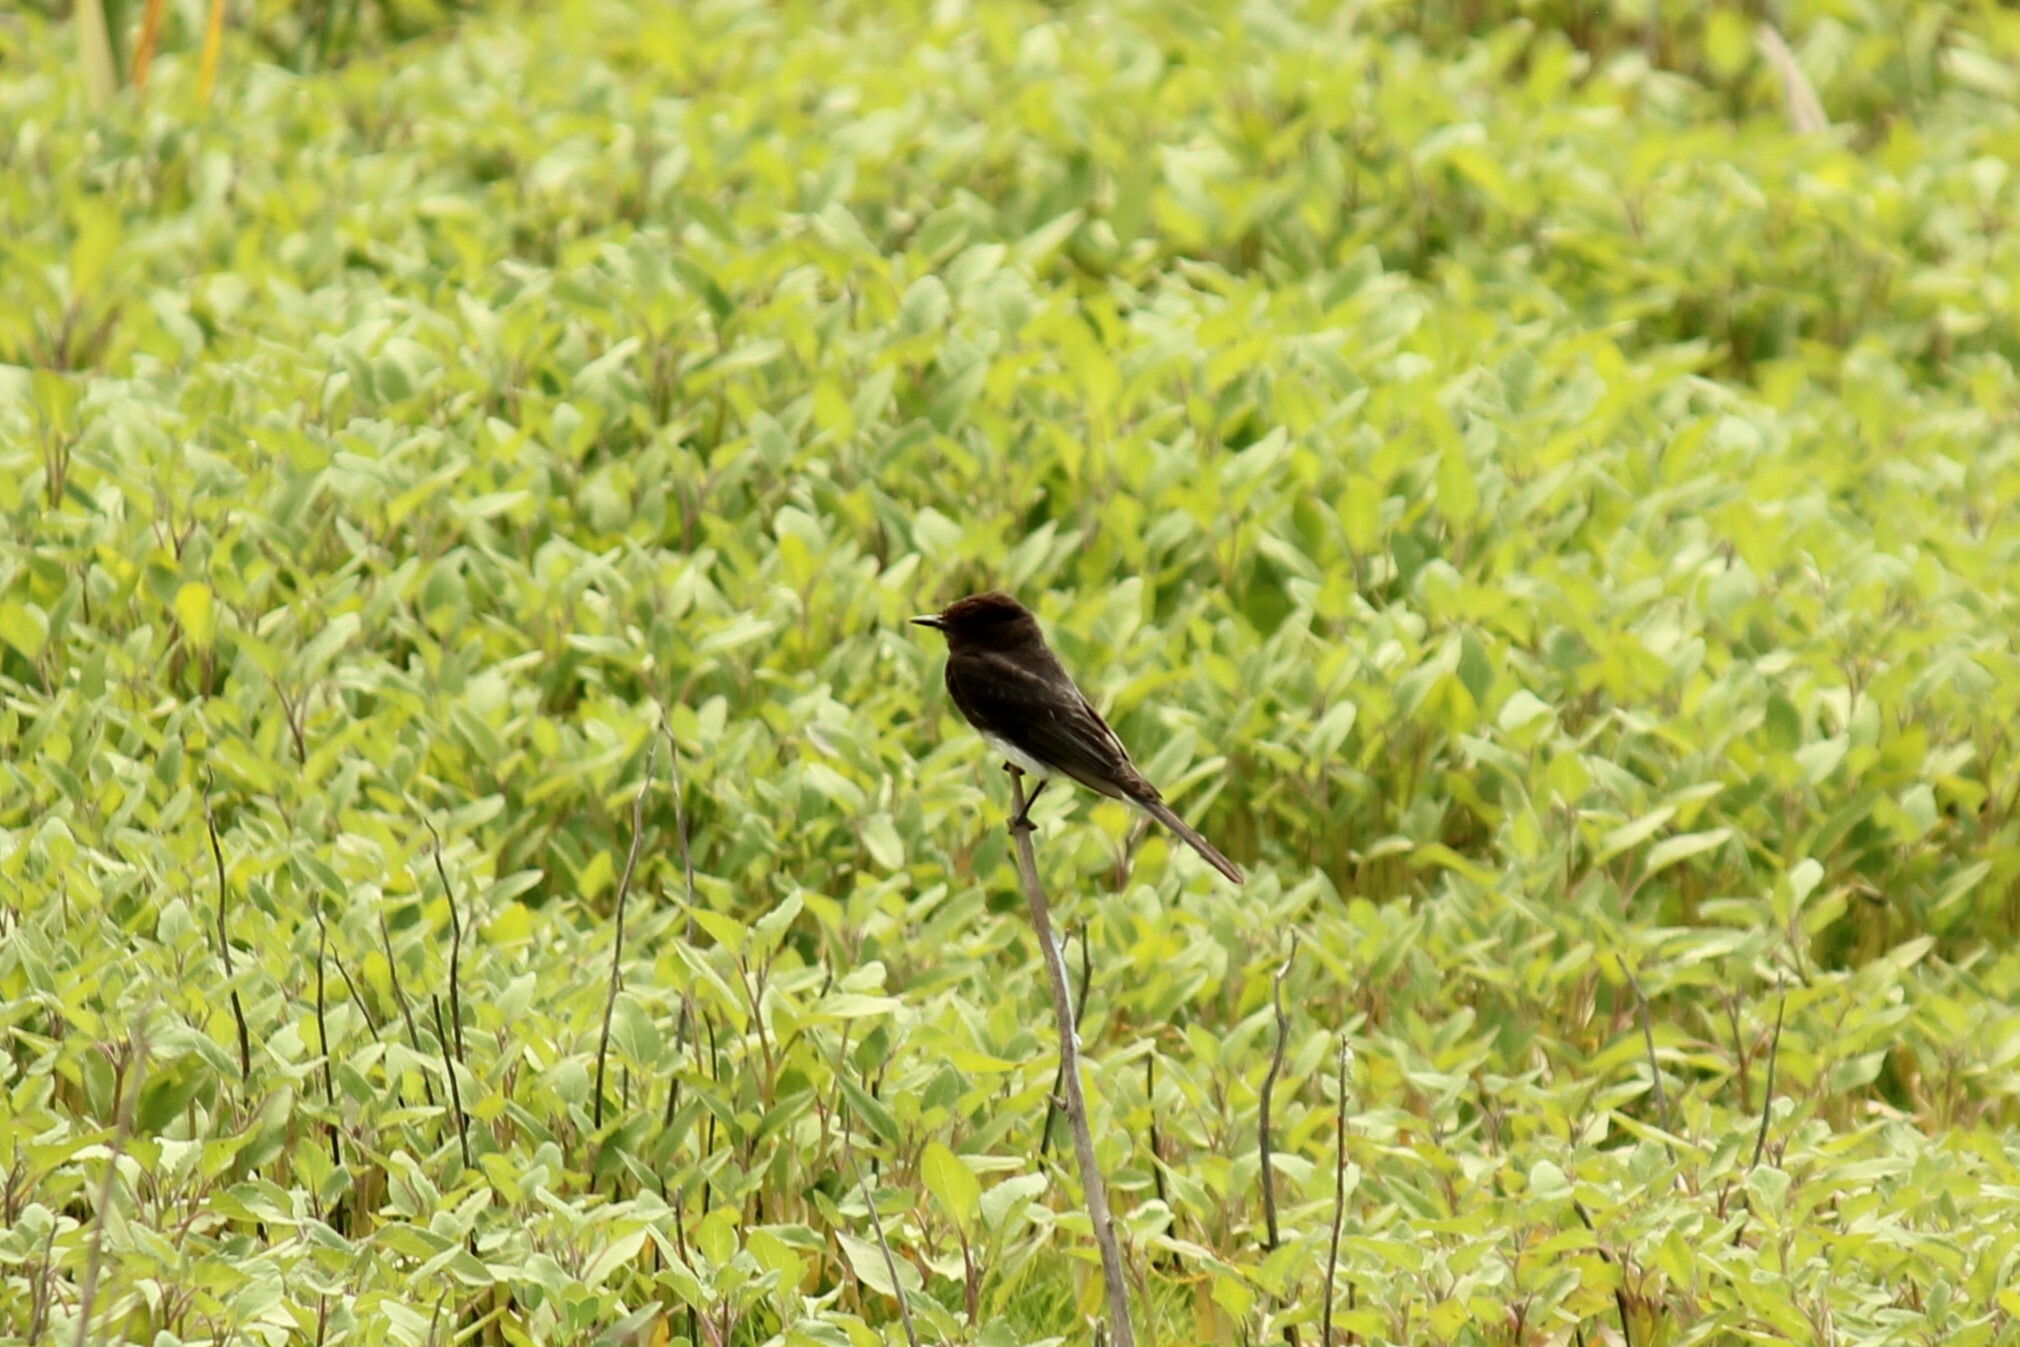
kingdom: Animalia
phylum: Chordata
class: Aves
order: Passeriformes
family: Tyrannidae
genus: Sayornis
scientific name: Sayornis nigricans
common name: Black phoebe
